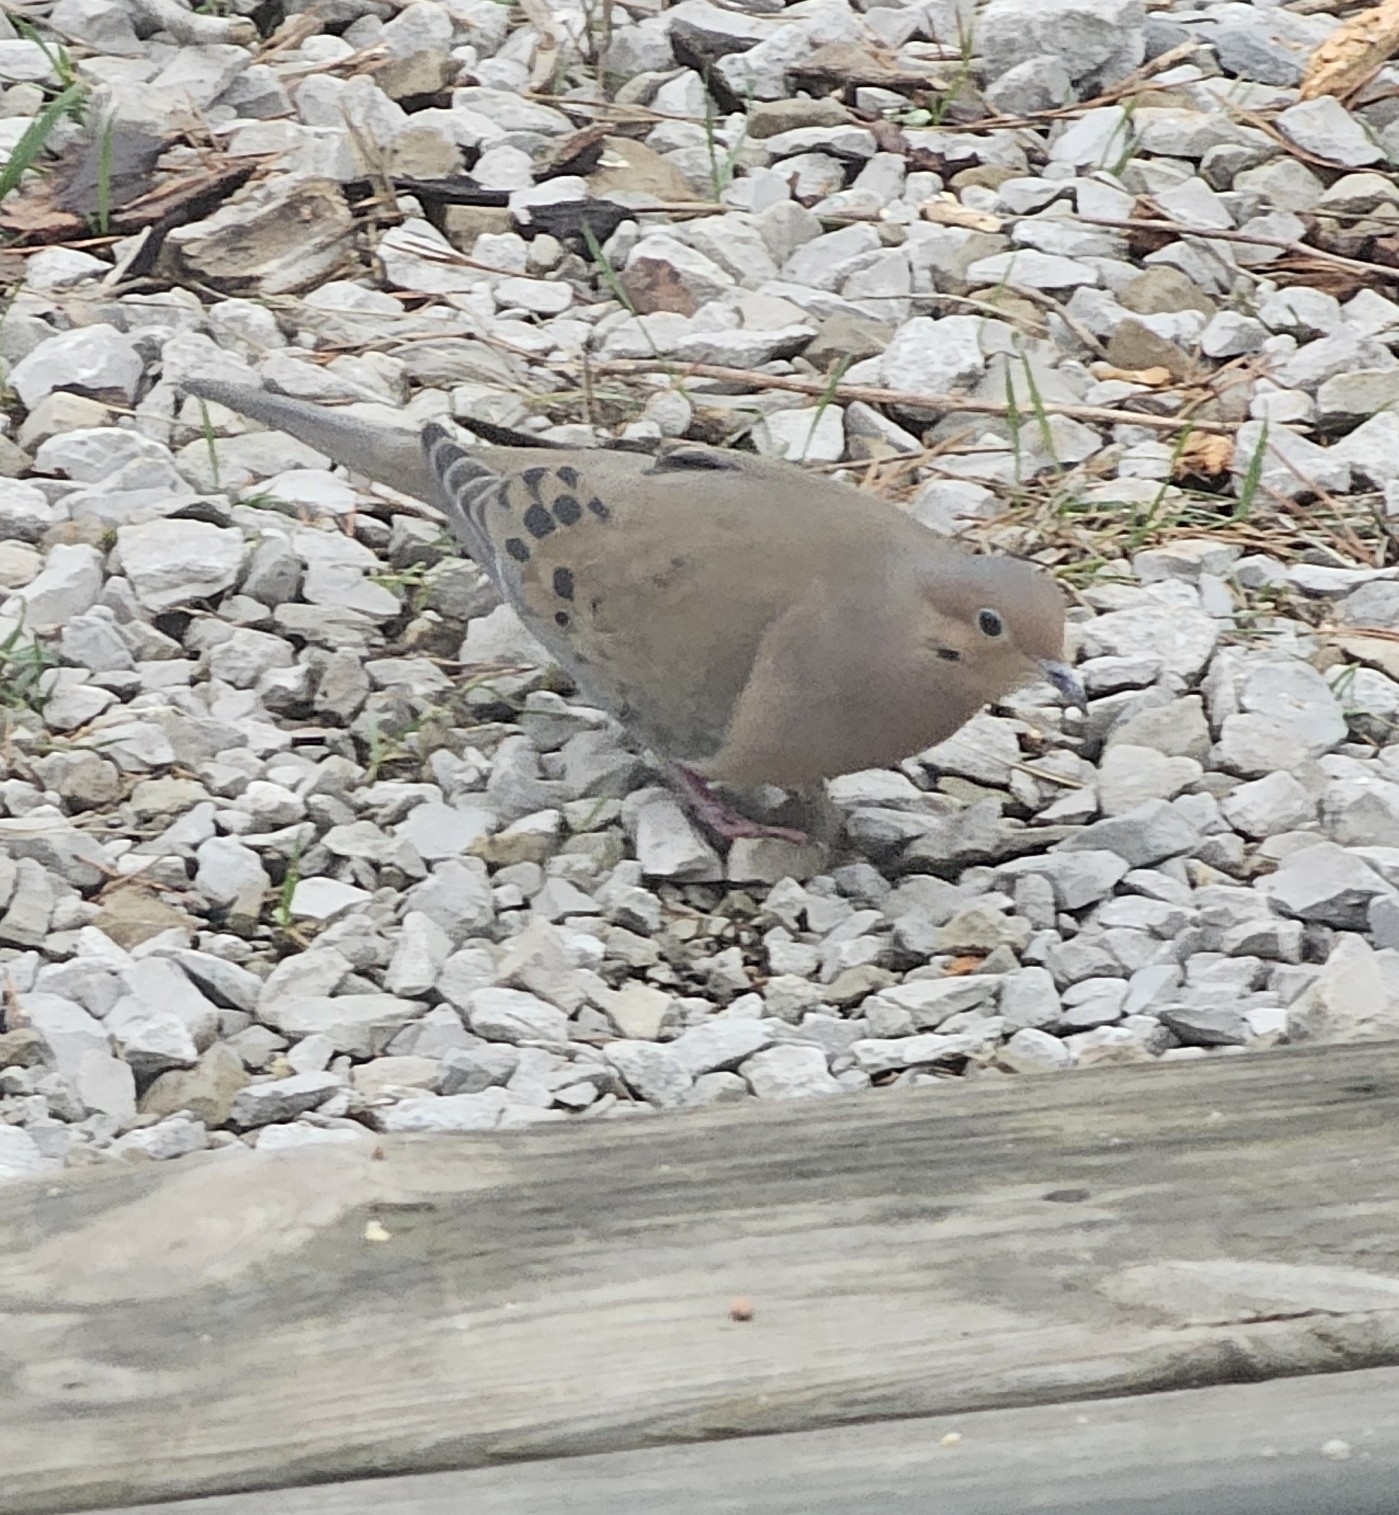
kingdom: Animalia
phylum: Chordata
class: Aves
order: Columbiformes
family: Columbidae
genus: Zenaida
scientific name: Zenaida macroura
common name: Mourning dove
